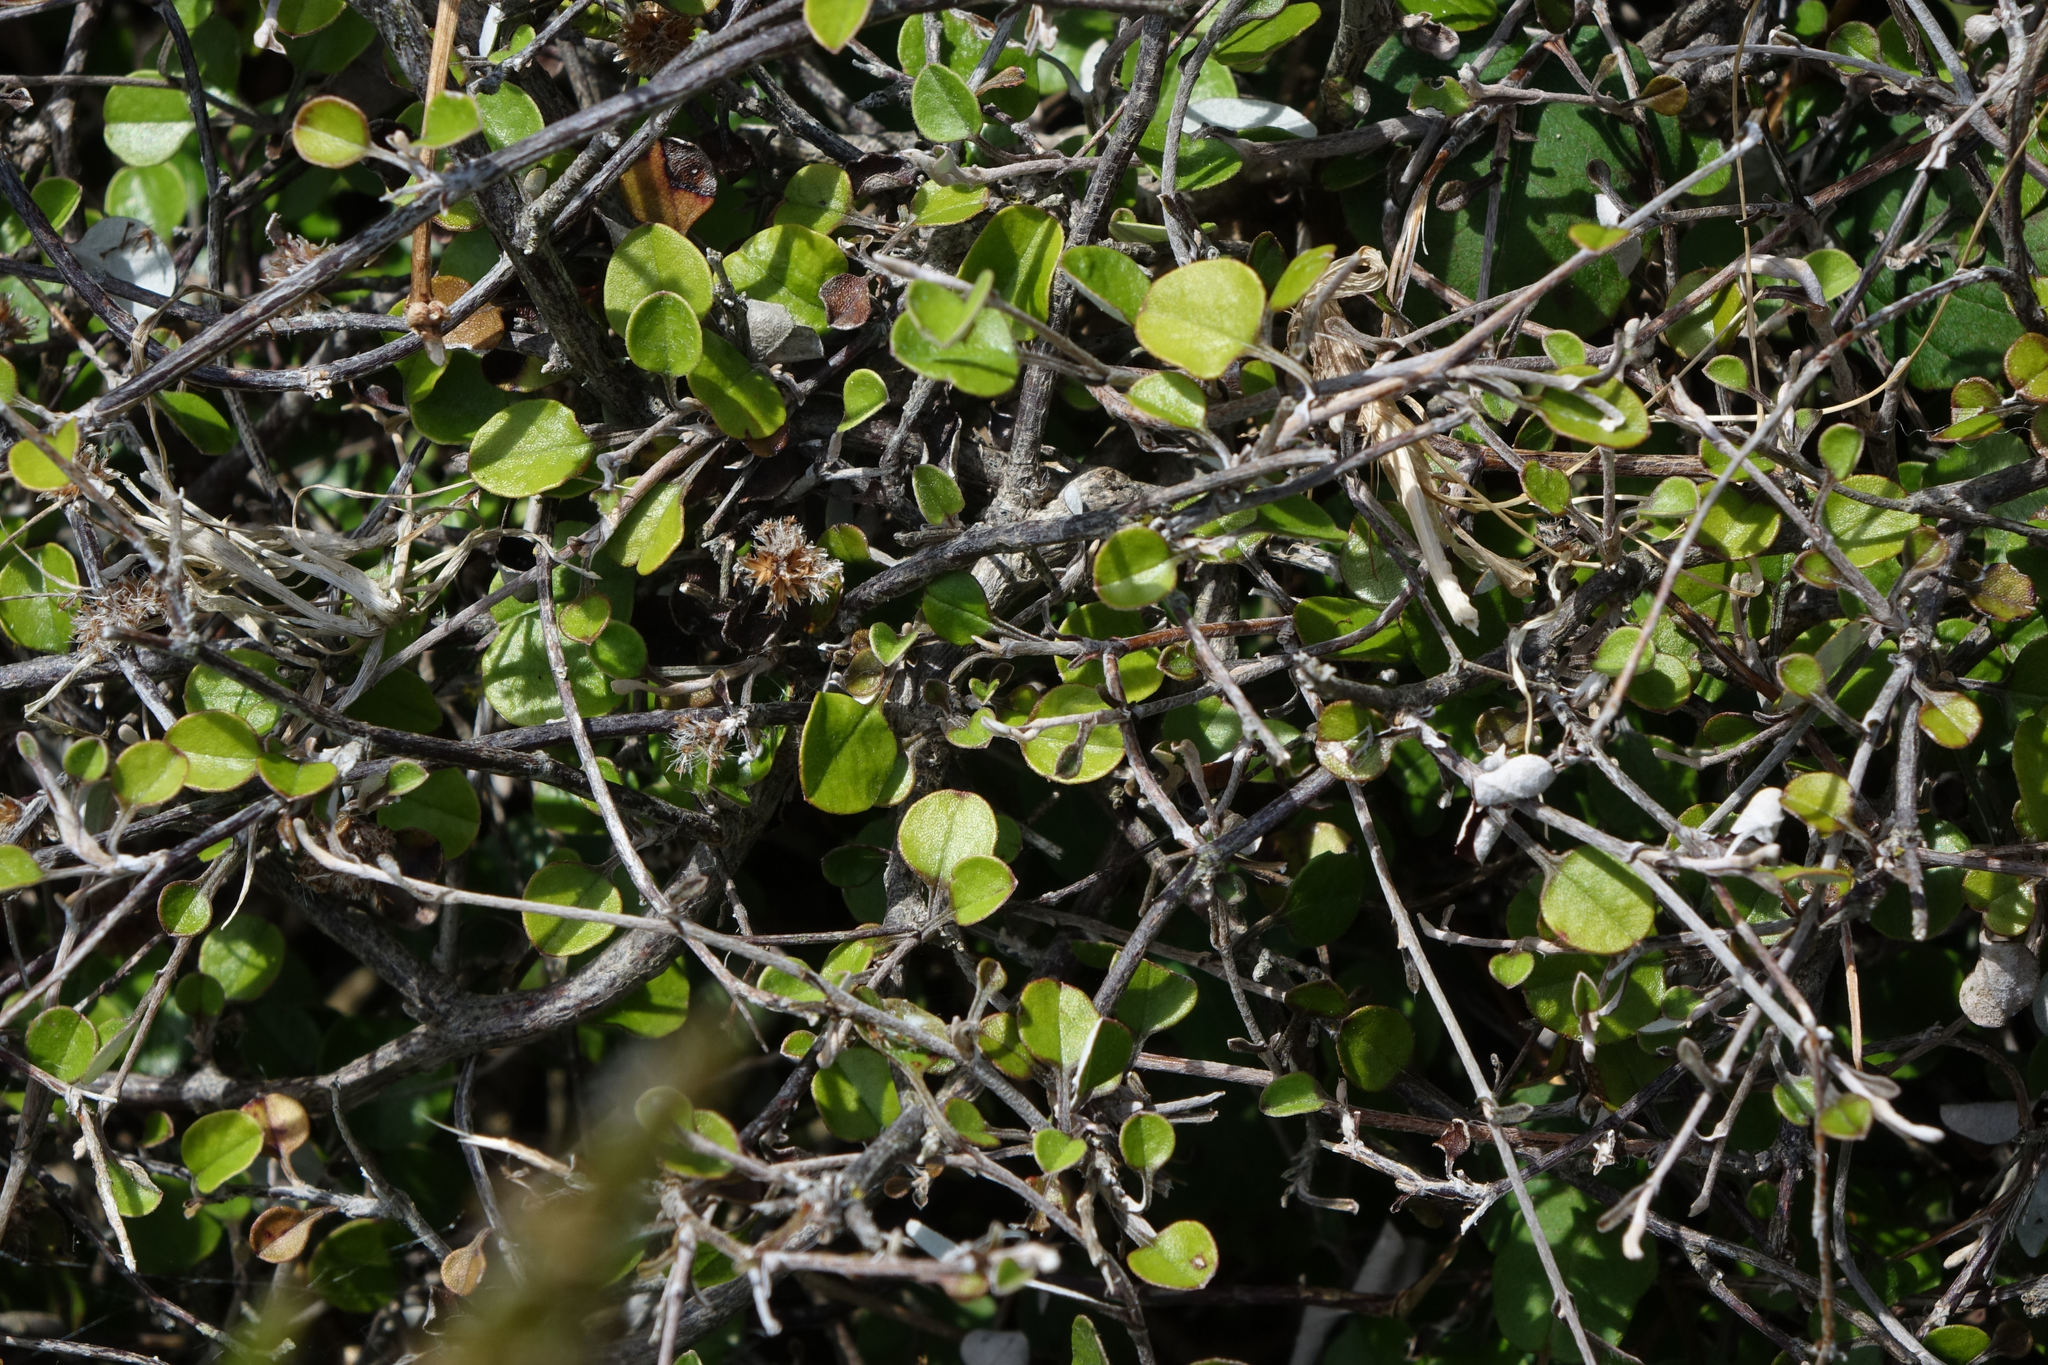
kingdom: Plantae
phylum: Tracheophyta
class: Magnoliopsida
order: Asterales
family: Asteraceae
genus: Ozothamnus
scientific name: Ozothamnus glomeratus
